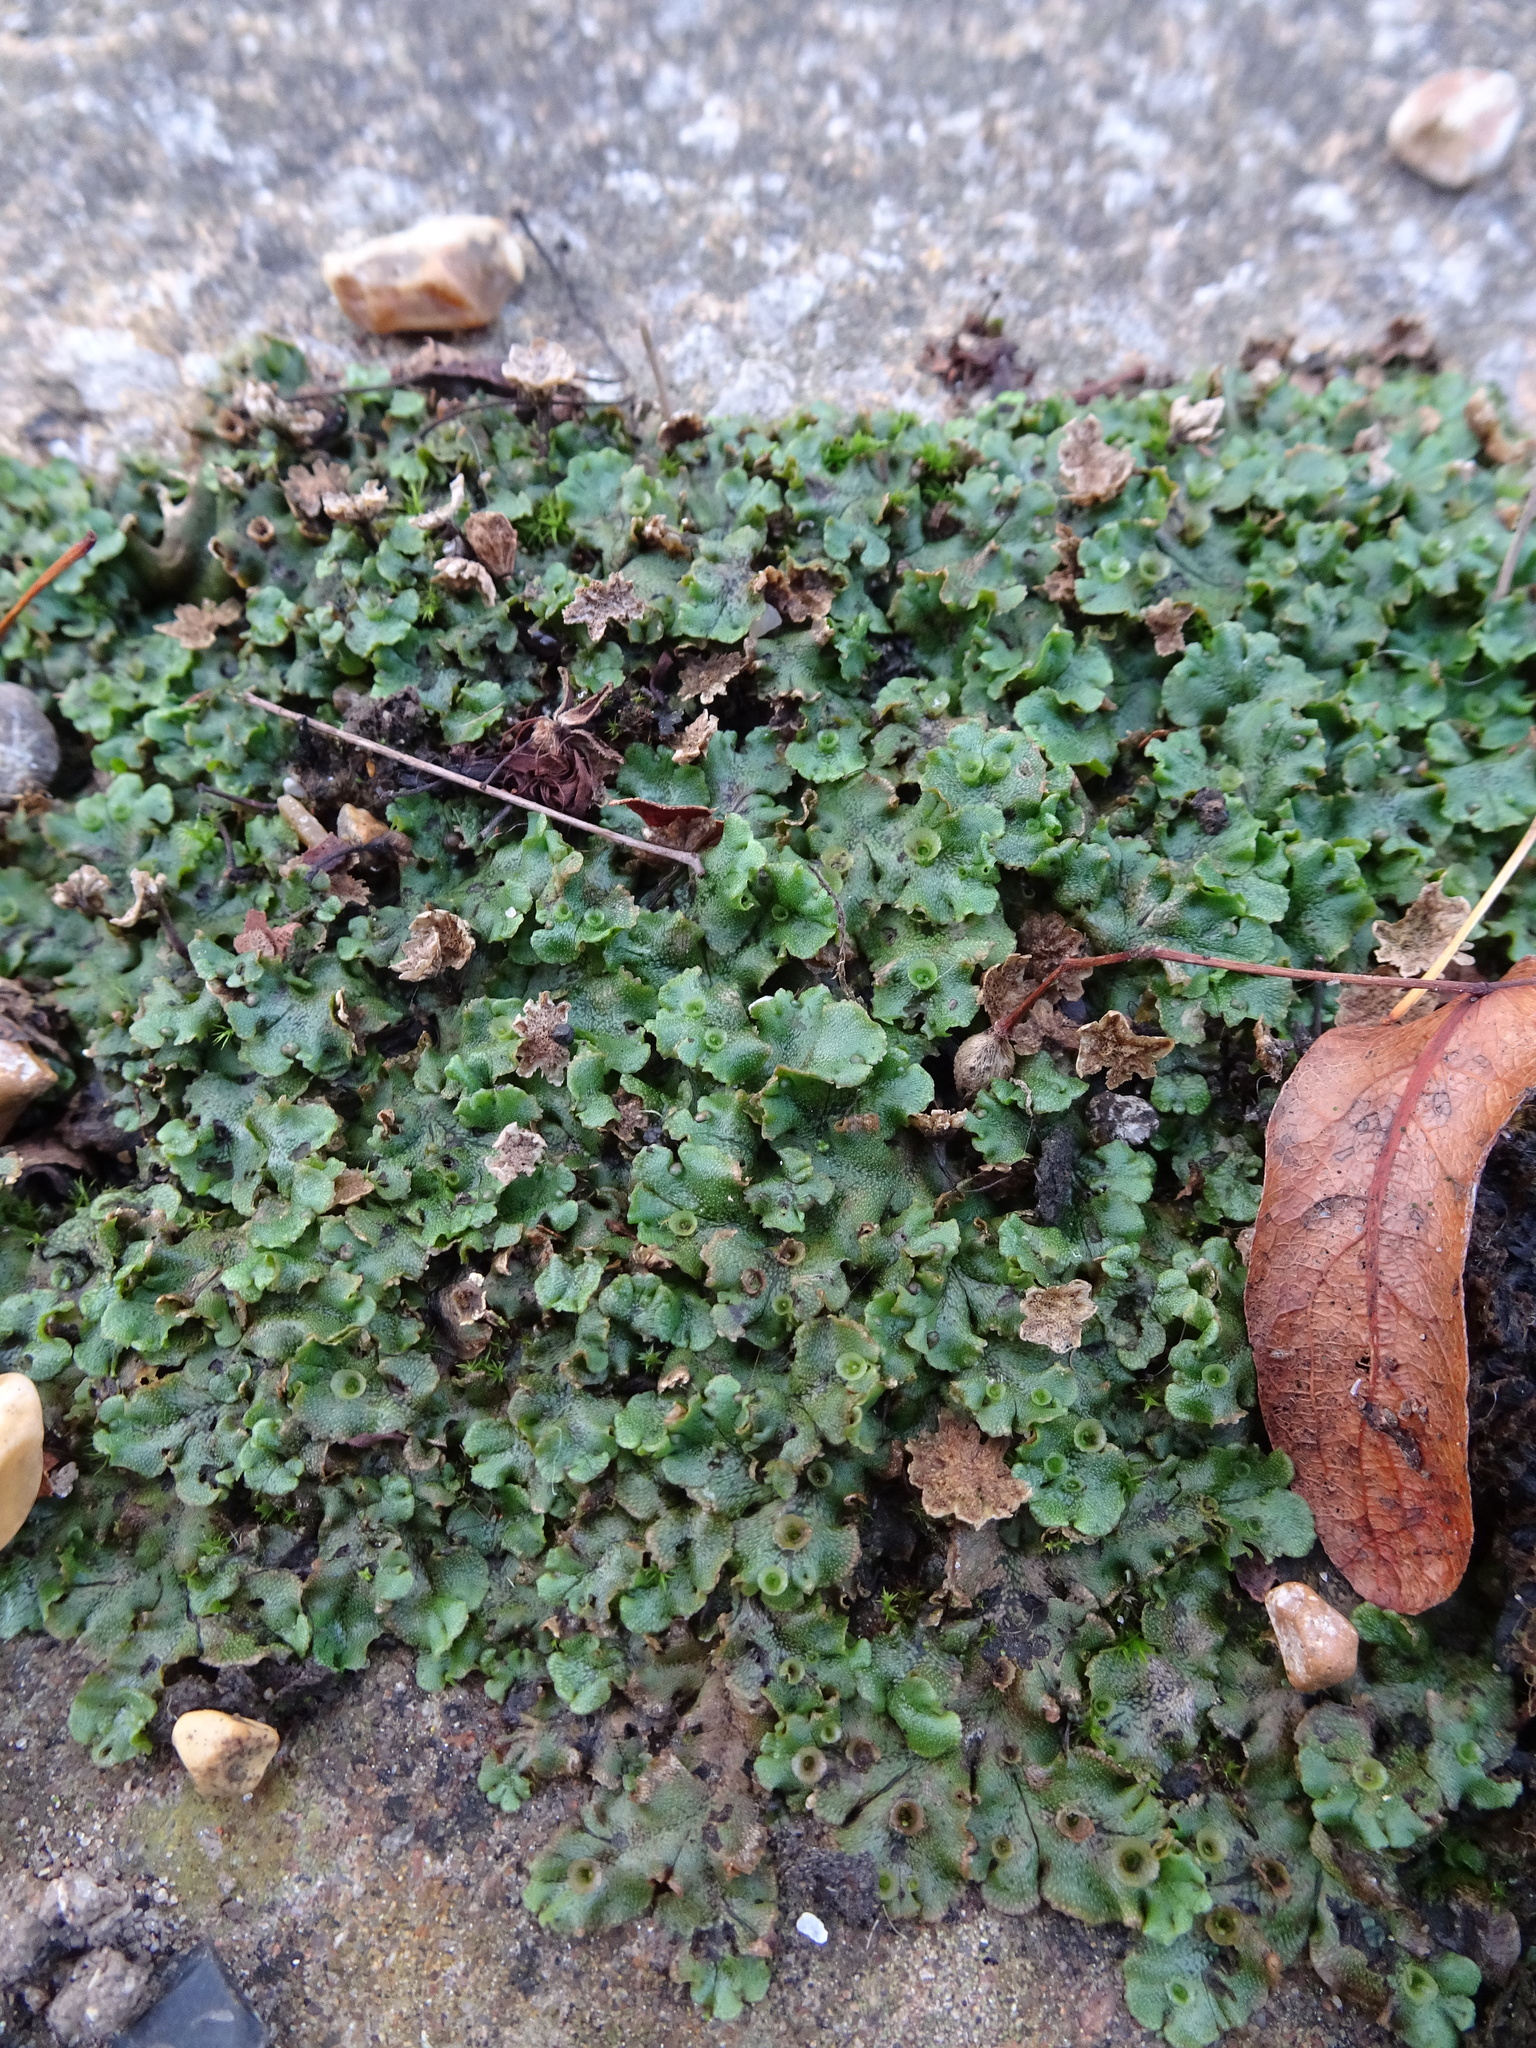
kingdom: Plantae
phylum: Marchantiophyta
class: Marchantiopsida
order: Marchantiales
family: Marchantiaceae
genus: Marchantia
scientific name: Marchantia polymorpha
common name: Common liverwort
